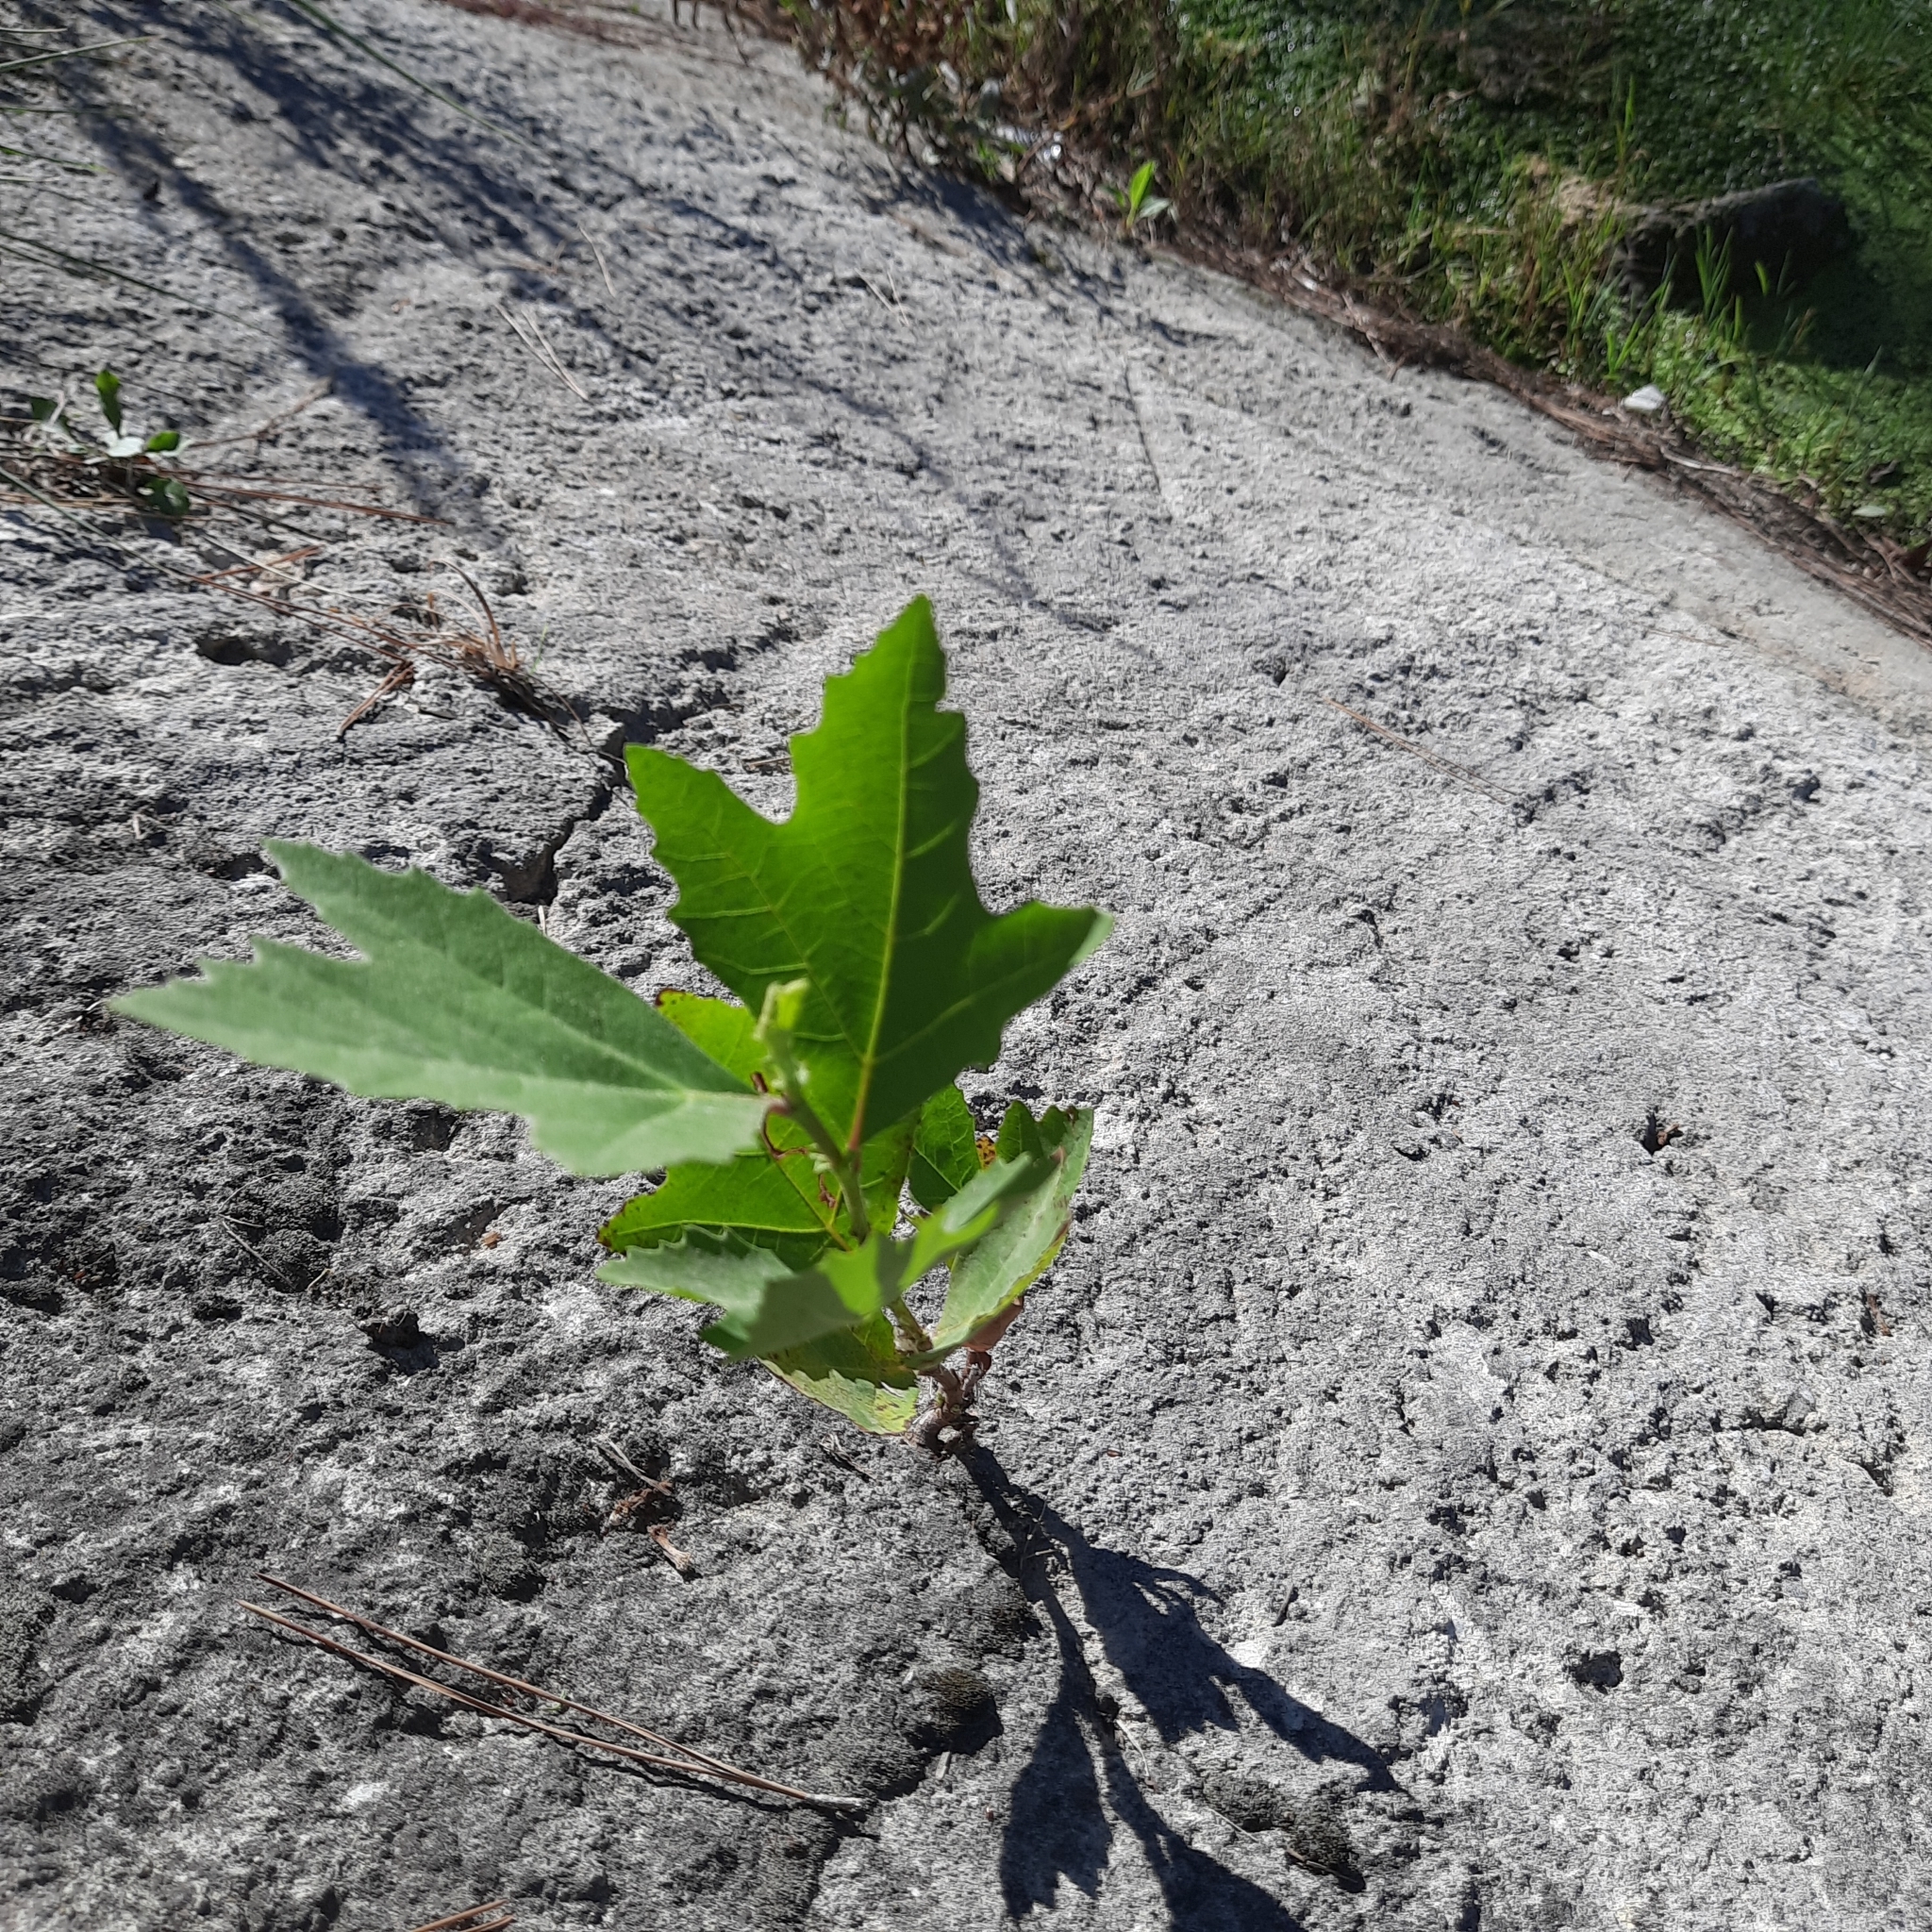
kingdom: Plantae
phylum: Tracheophyta
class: Magnoliopsida
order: Proteales
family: Platanaceae
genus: Platanus
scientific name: Platanus orientalis
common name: Oriental plane
